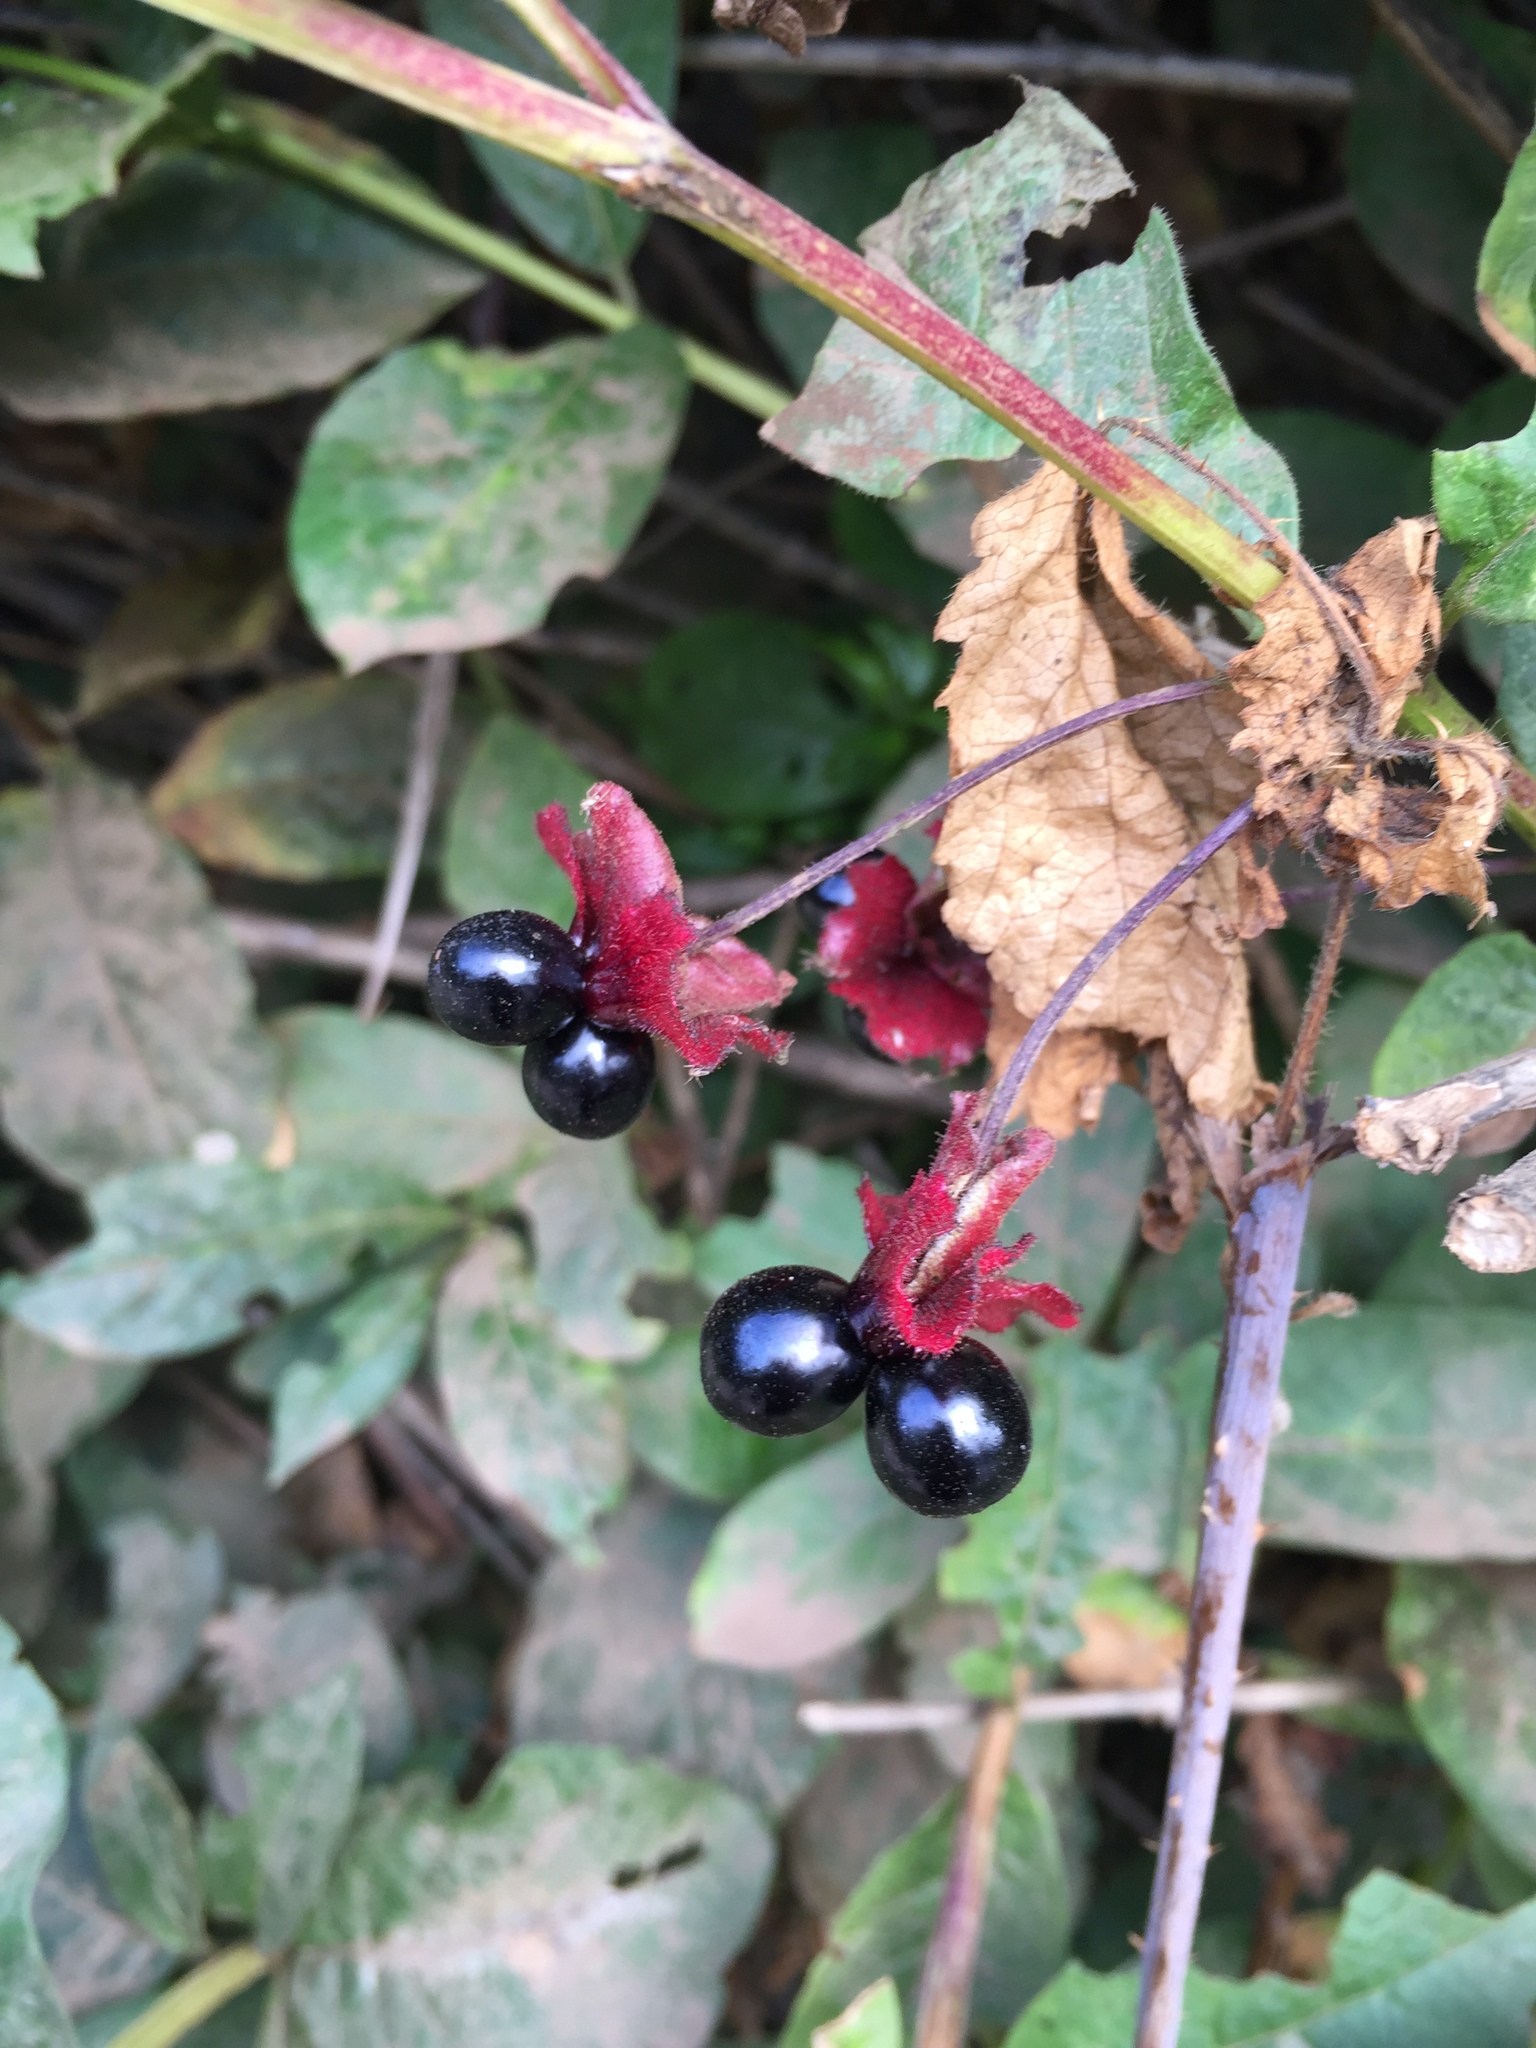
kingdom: Plantae
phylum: Tracheophyta
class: Magnoliopsida
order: Dipsacales
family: Caprifoliaceae
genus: Lonicera
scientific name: Lonicera involucrata
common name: Californian honeysuckle
